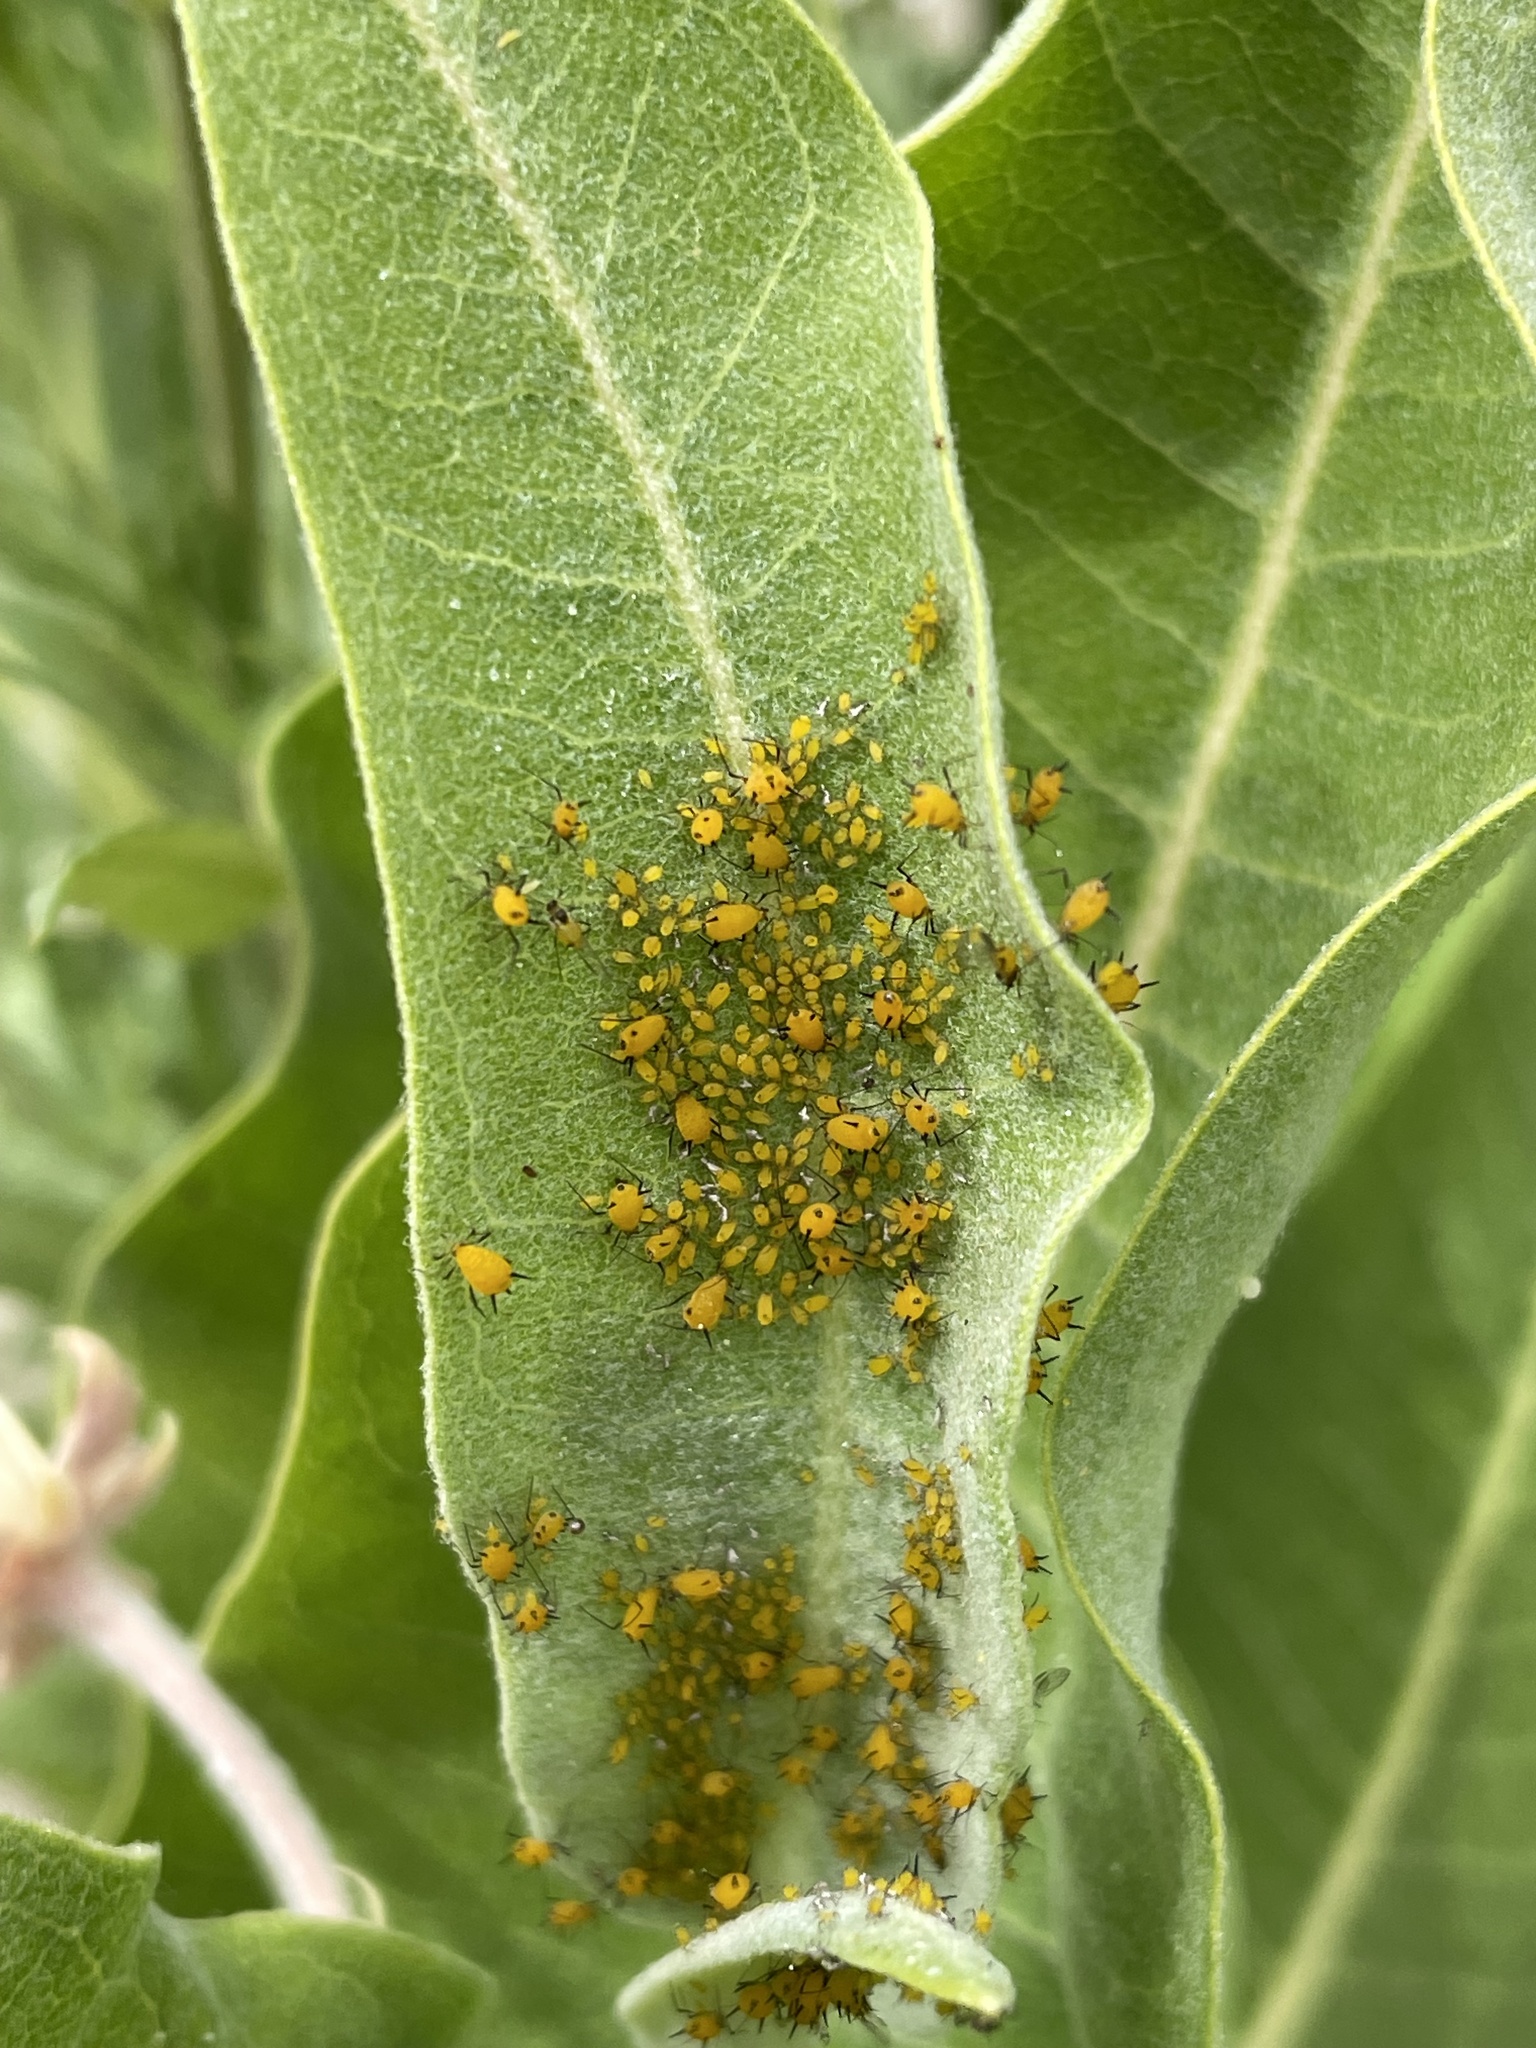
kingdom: Animalia
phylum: Arthropoda
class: Insecta
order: Hemiptera
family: Aphididae
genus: Aphis
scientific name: Aphis nerii
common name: Oleander aphid
